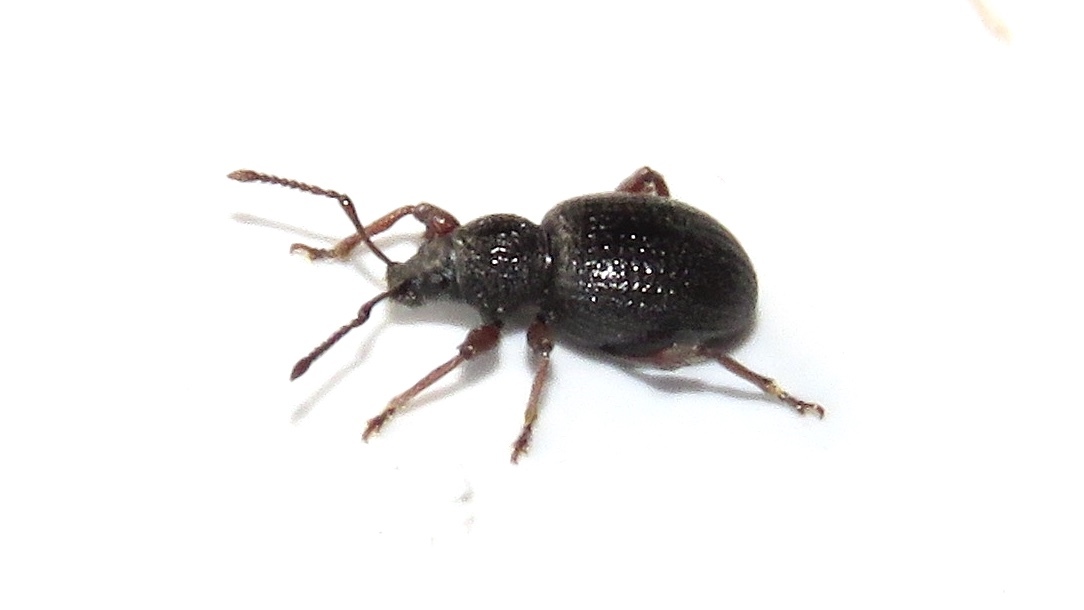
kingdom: Animalia
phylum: Arthropoda
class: Insecta
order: Coleoptera
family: Curculionidae
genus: Otiorhynchus
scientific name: Otiorhynchus ovatus
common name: Strawberry root weevil
